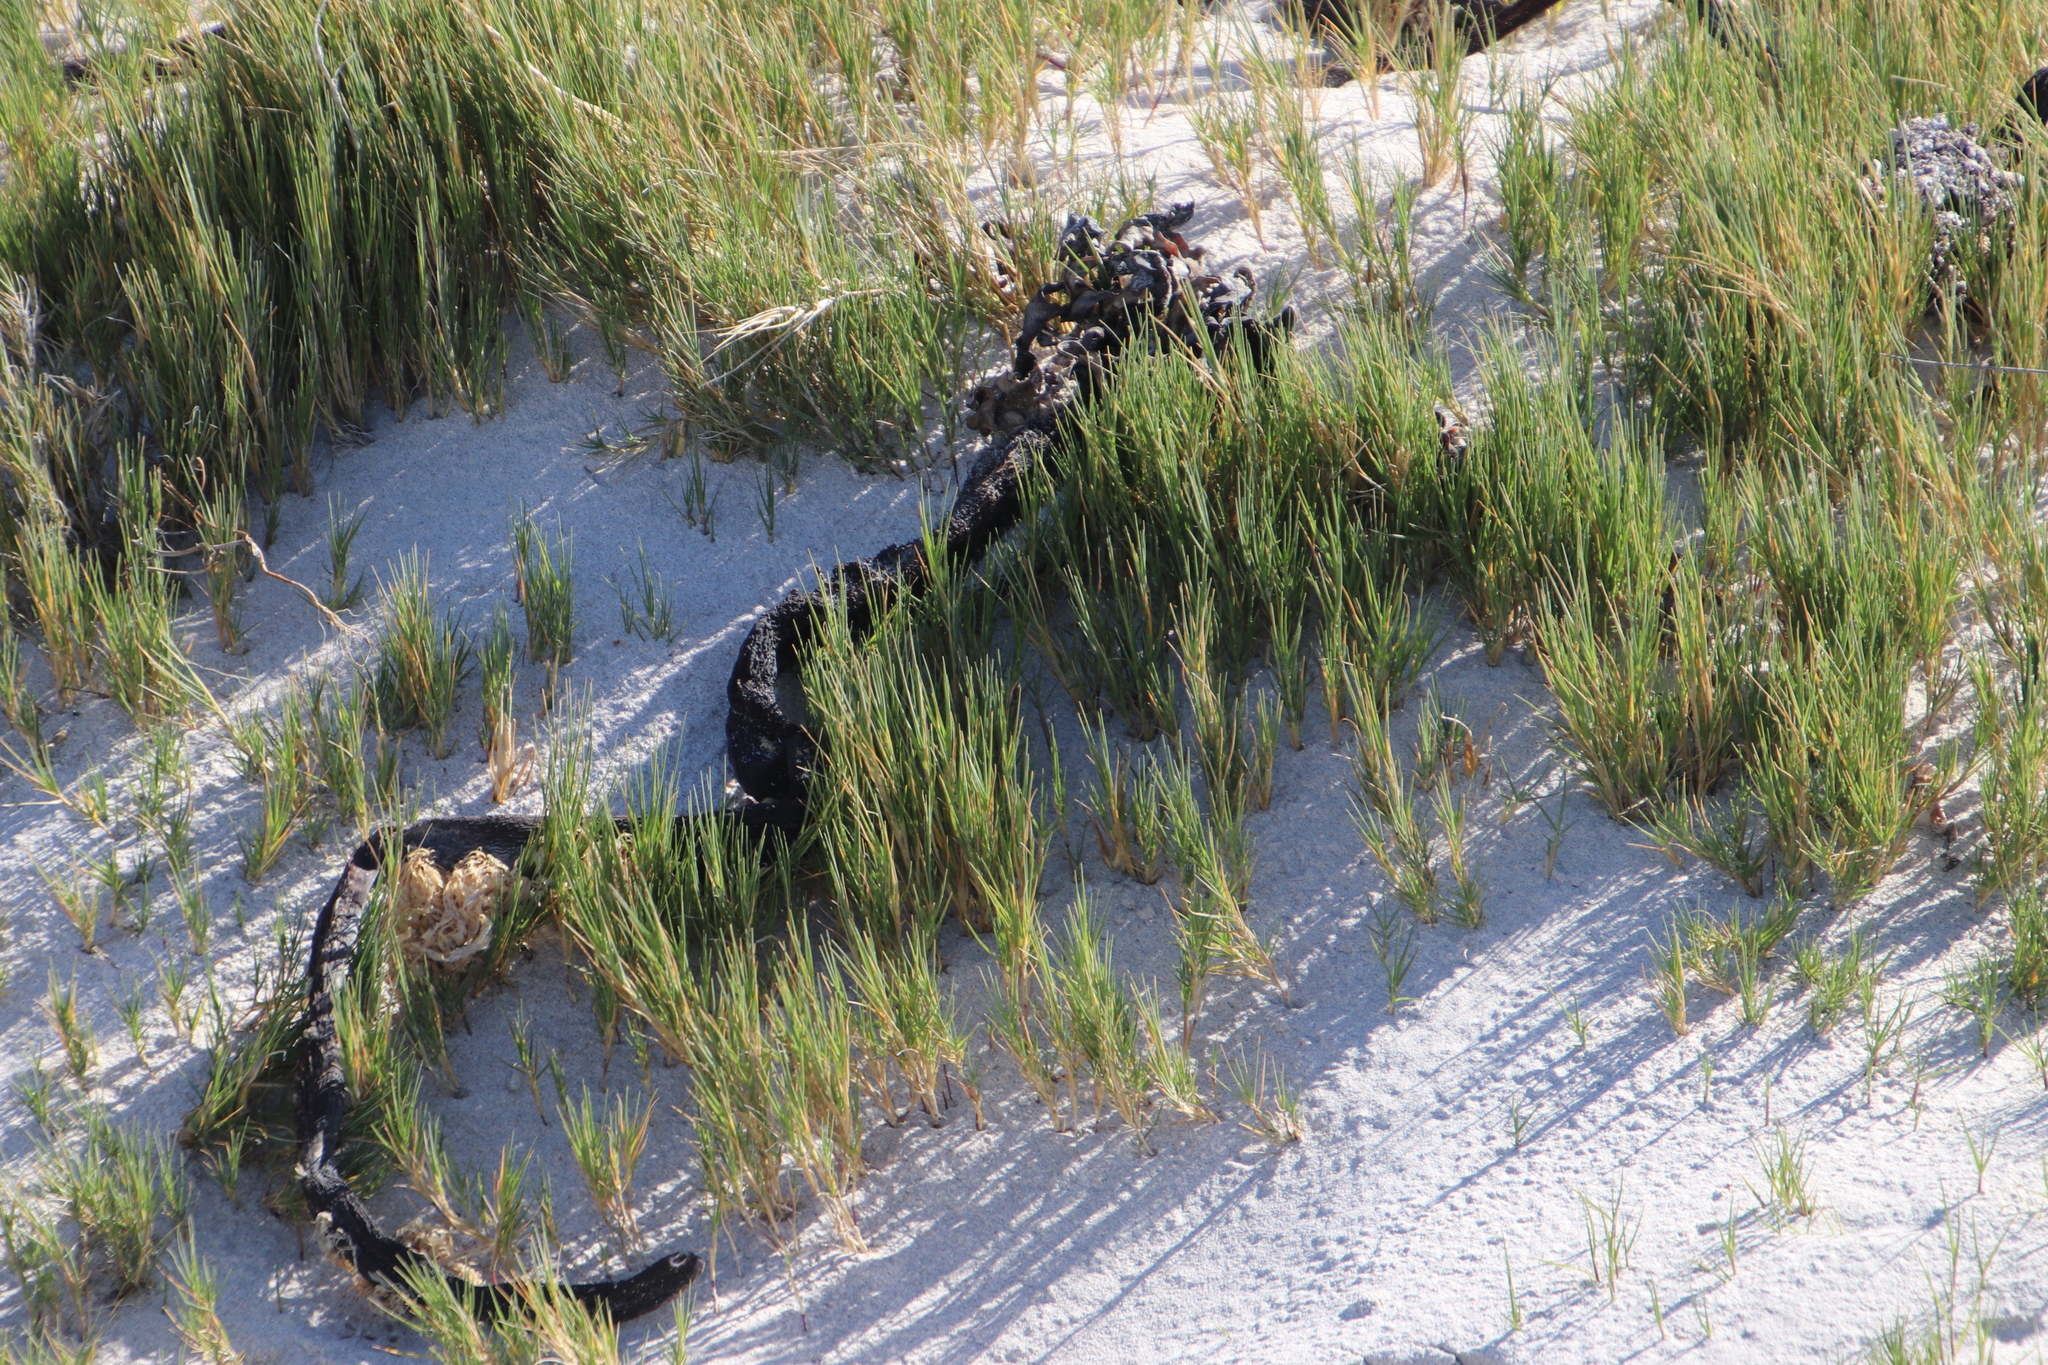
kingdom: Plantae
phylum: Tracheophyta
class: Liliopsida
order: Poales
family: Poaceae
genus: Sporobolus
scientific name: Sporobolus virginicus
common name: Beach dropseed
